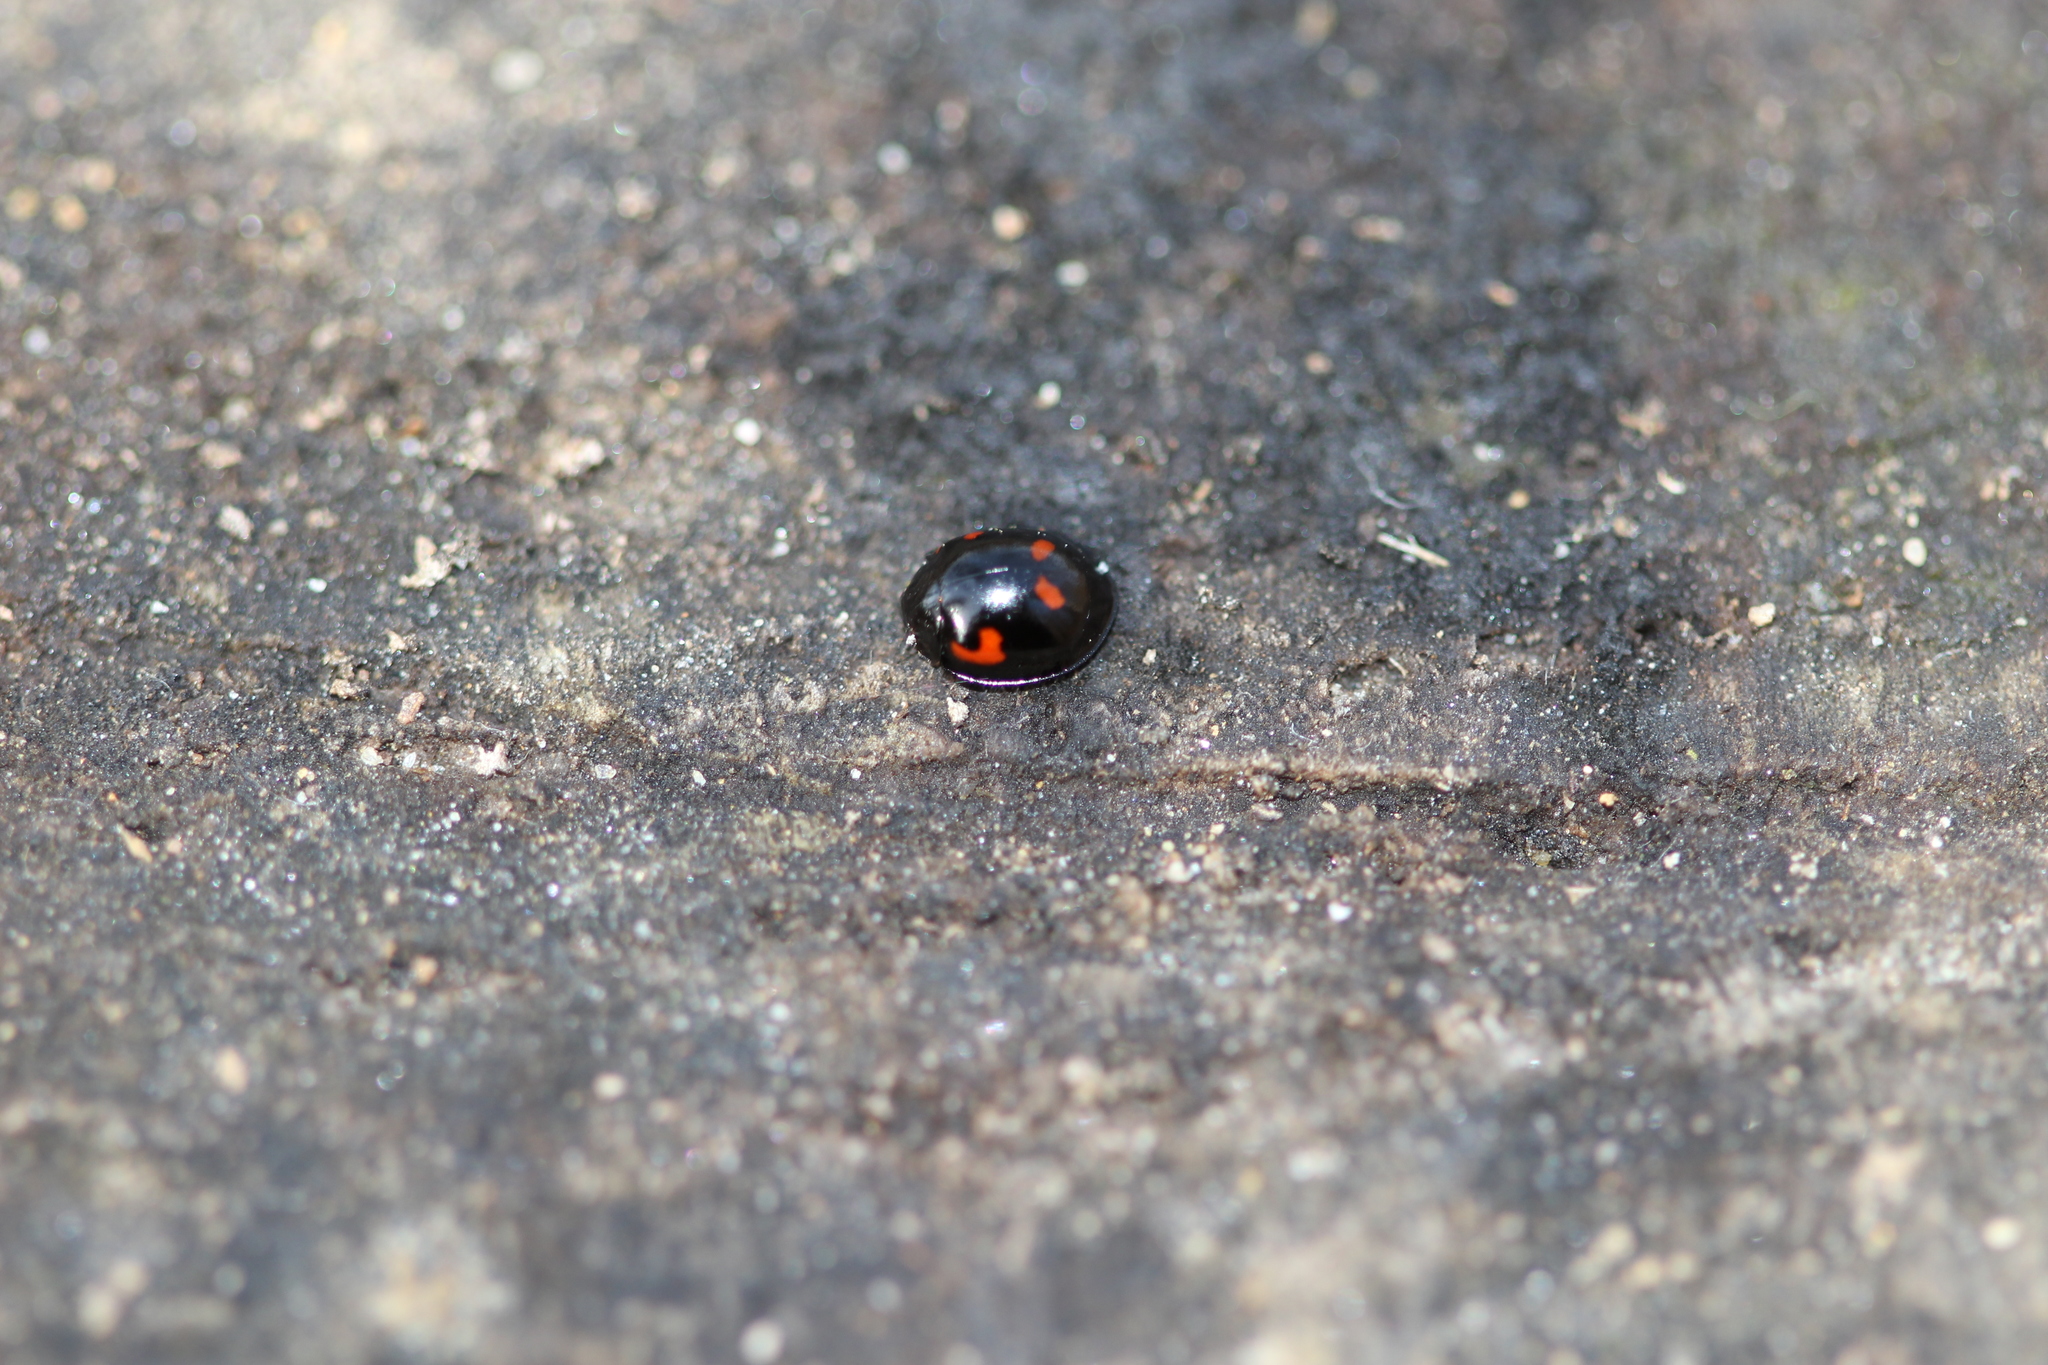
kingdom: Animalia
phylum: Arthropoda
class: Insecta
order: Coleoptera
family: Coccinellidae
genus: Brumus
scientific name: Brumus quadripustulatus
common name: Ladybird beetle
